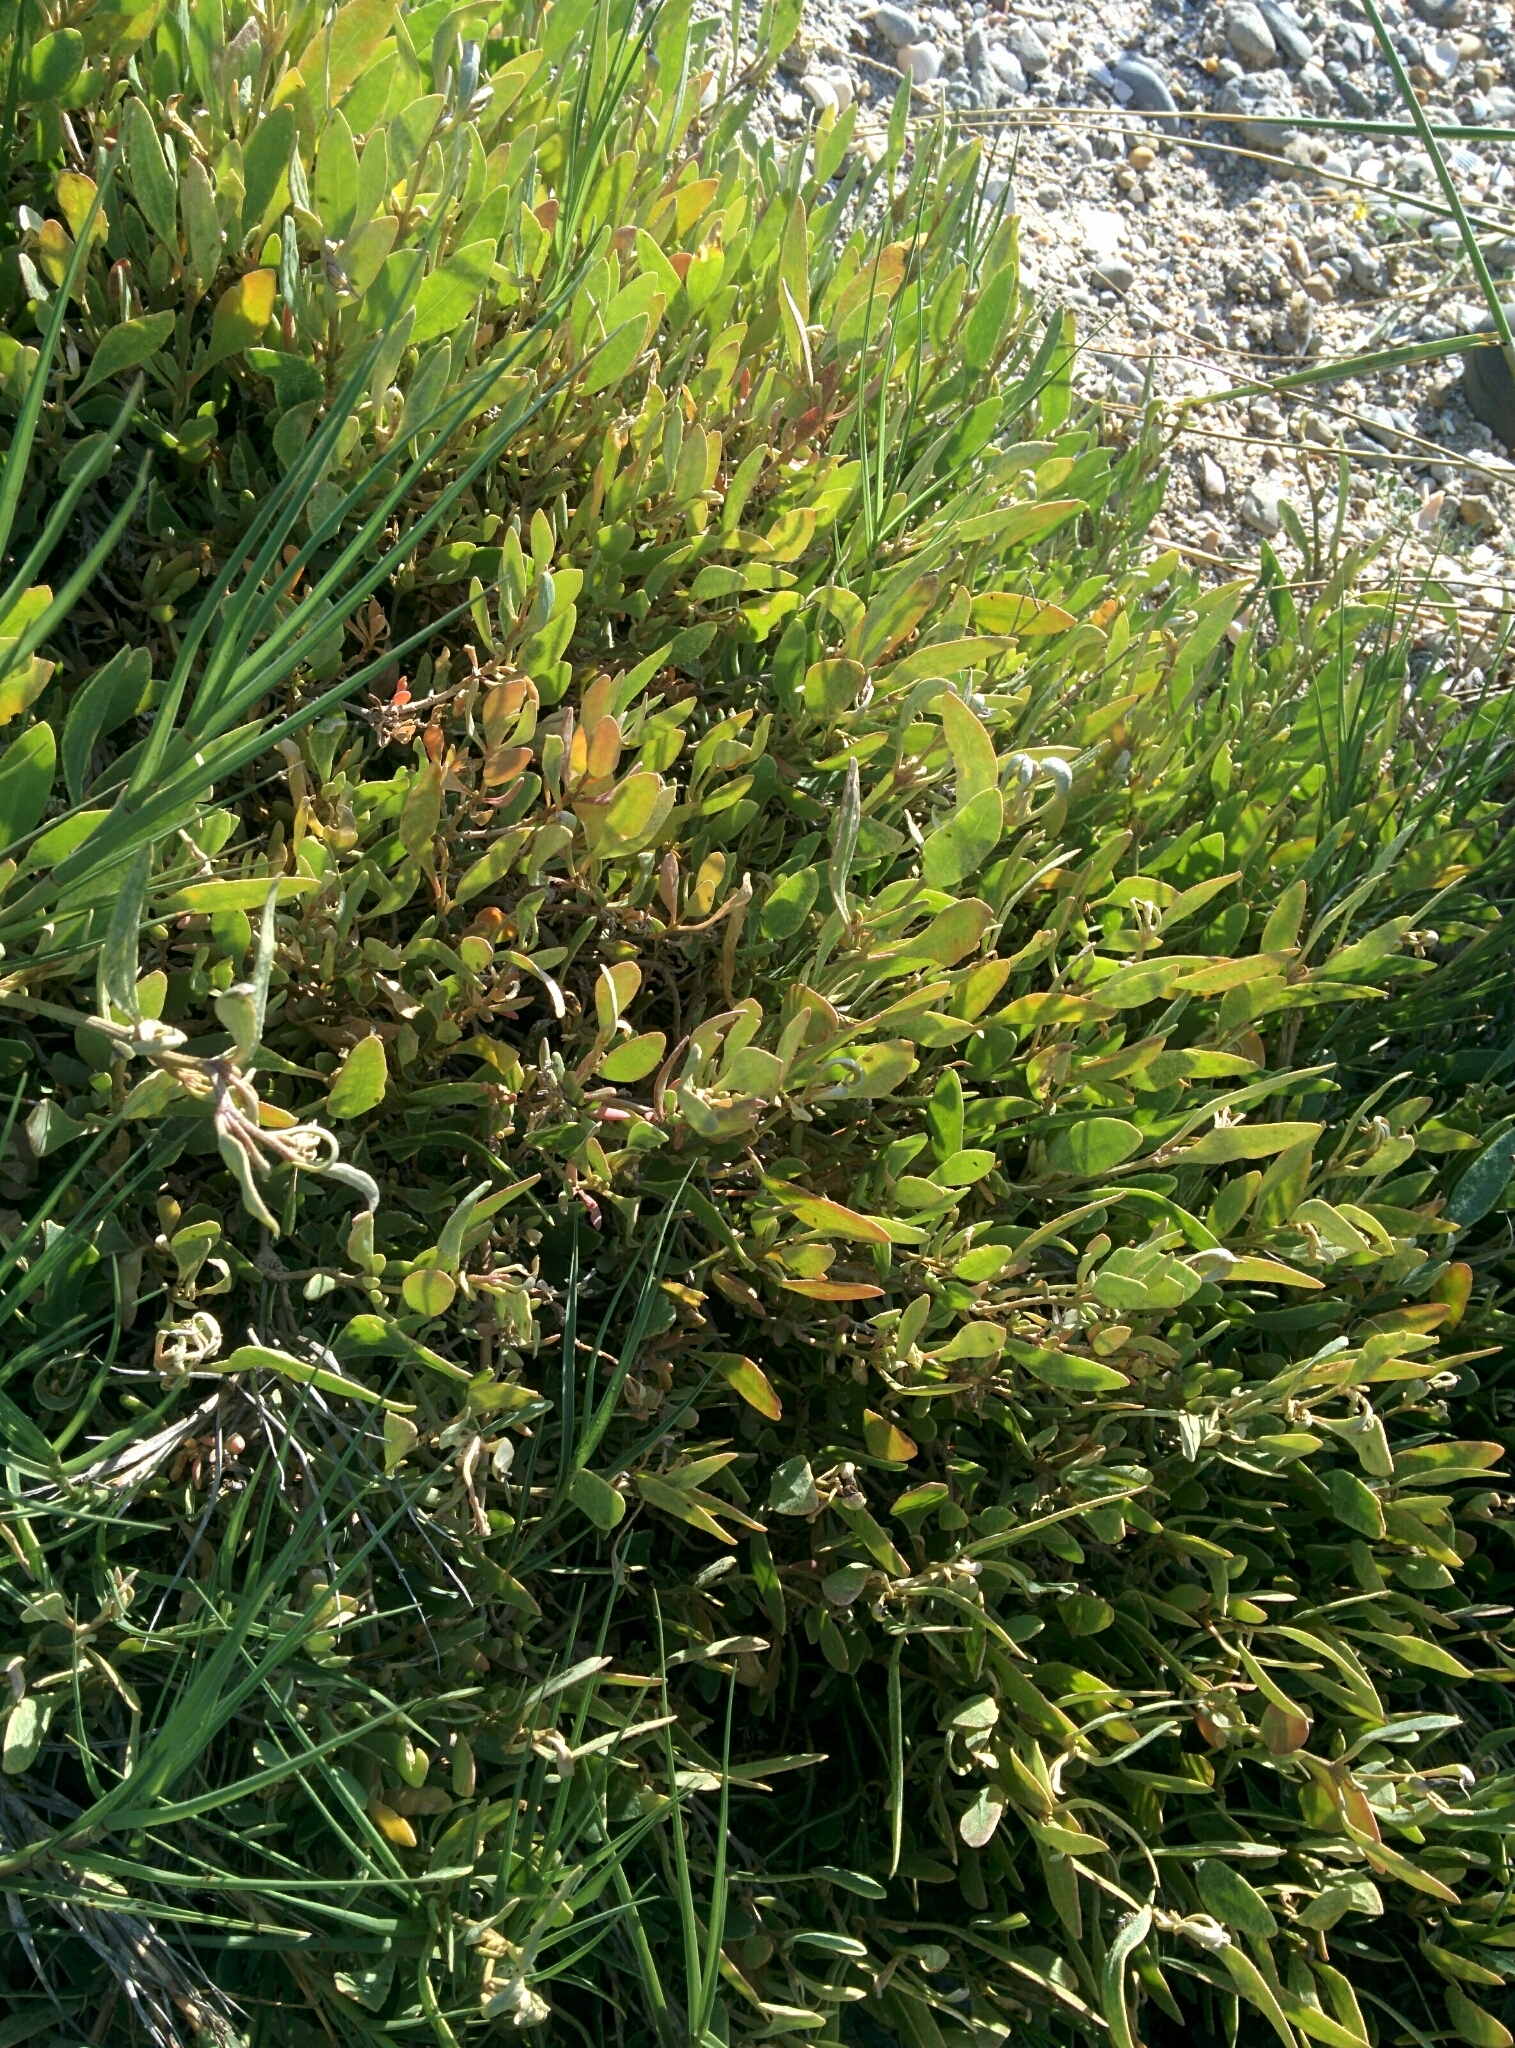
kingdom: Plantae
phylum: Tracheophyta
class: Magnoliopsida
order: Caryophyllales
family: Amaranthaceae
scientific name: Amaranthaceae
